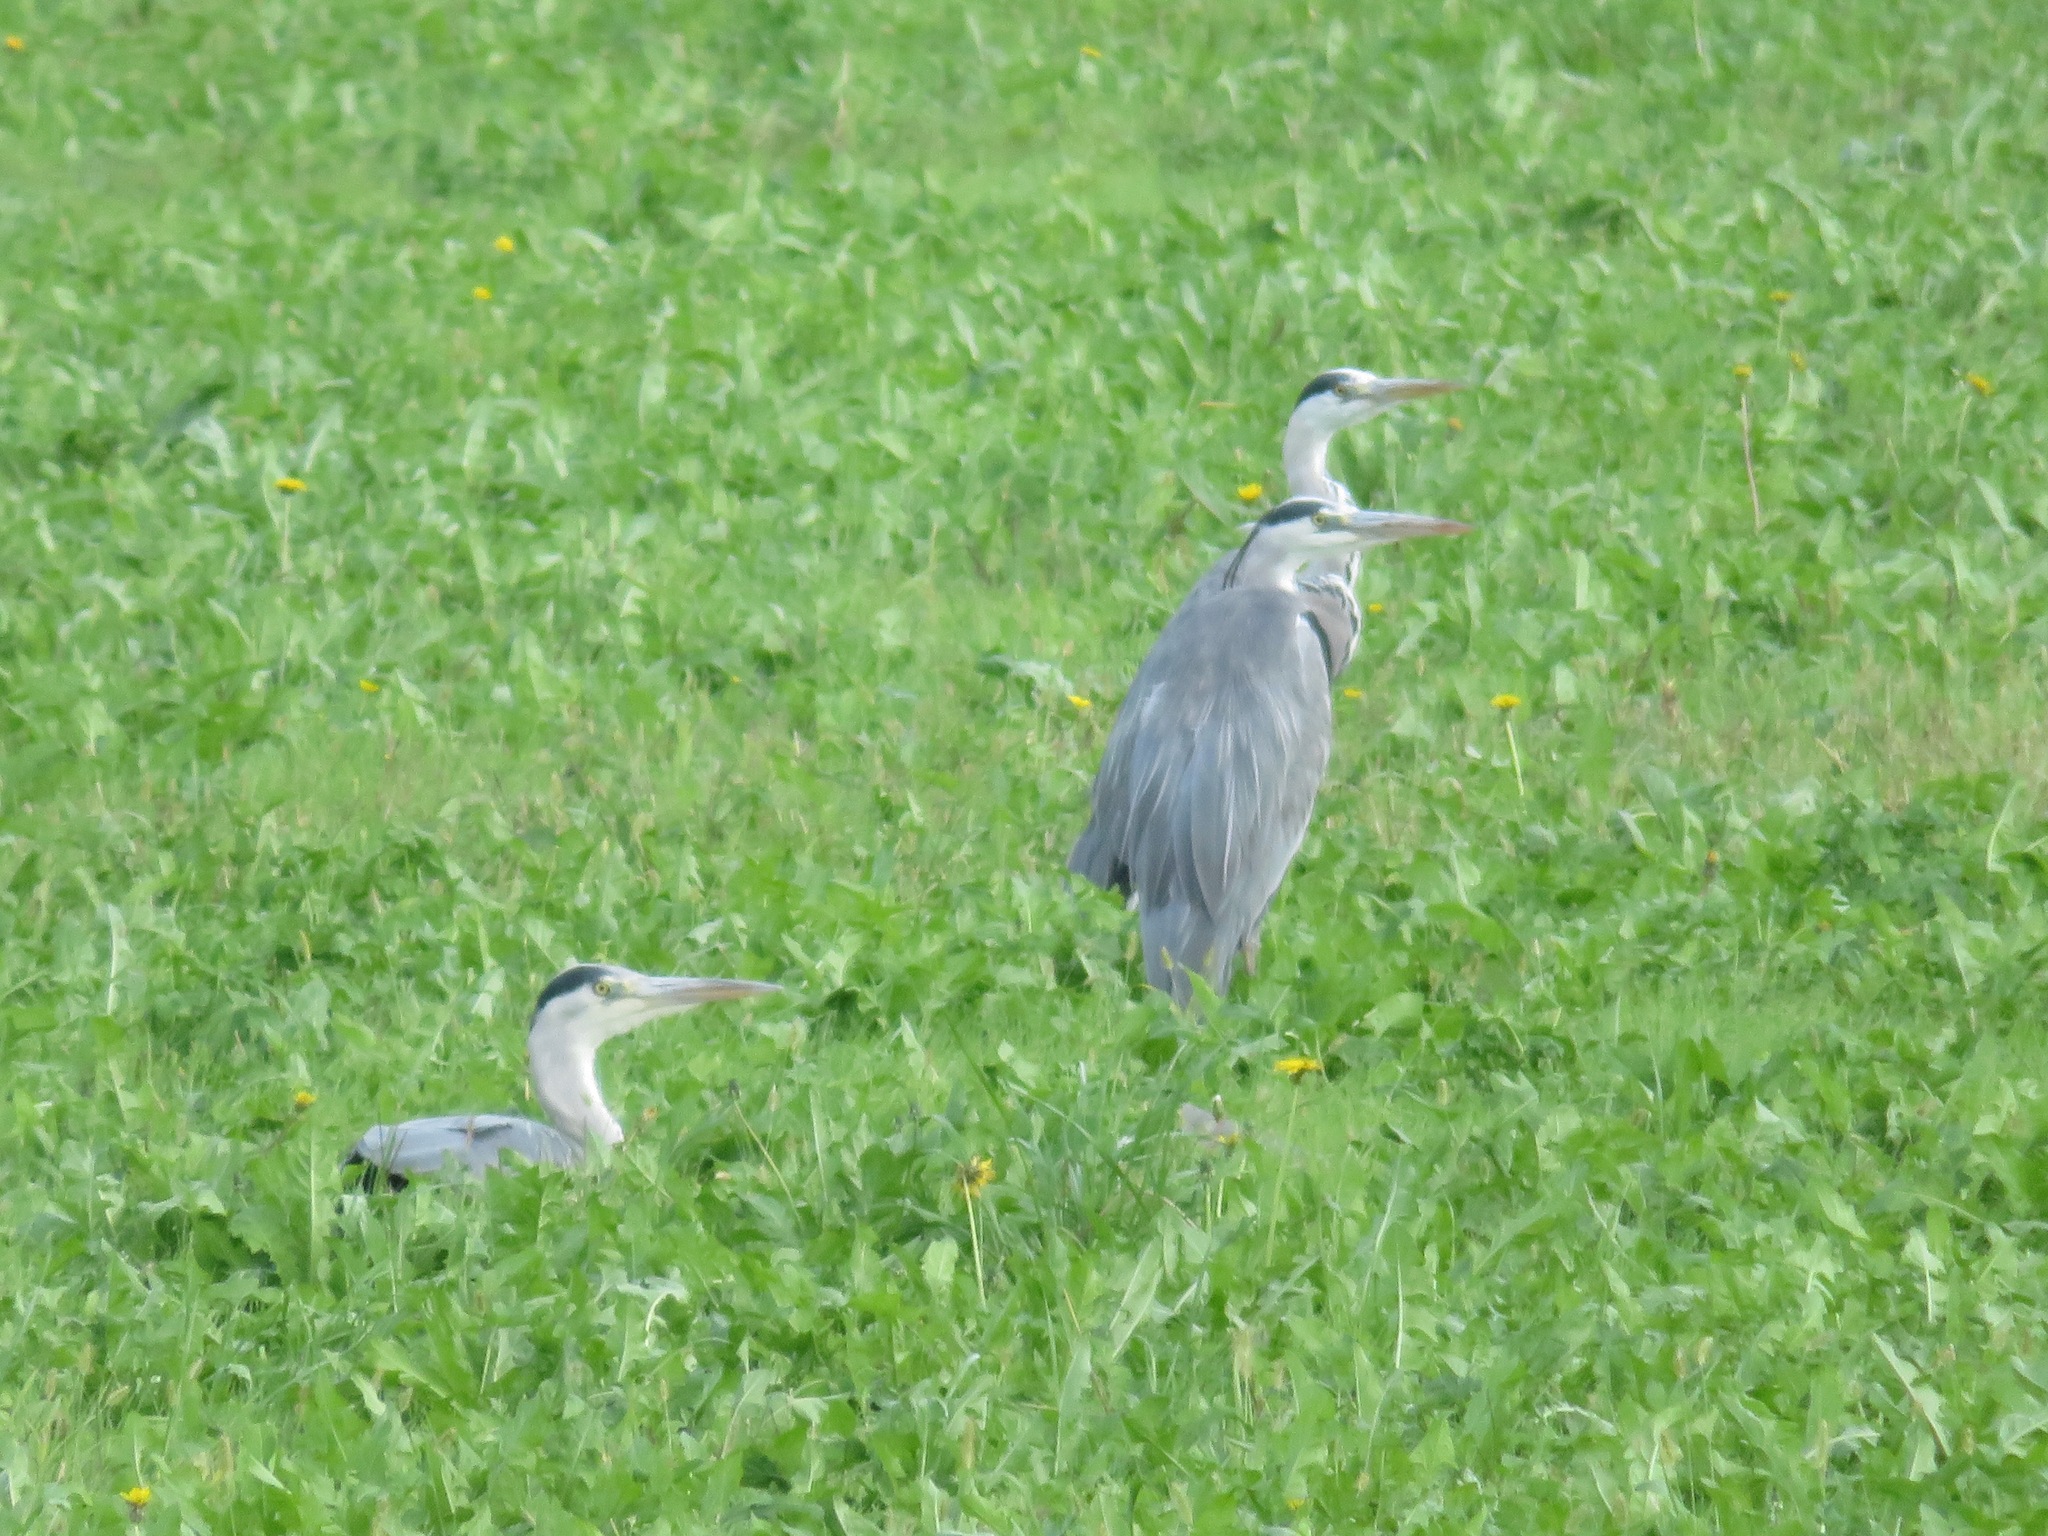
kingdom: Animalia
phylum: Chordata
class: Aves
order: Pelecaniformes
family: Ardeidae
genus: Ardea
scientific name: Ardea cinerea
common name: Grey heron
